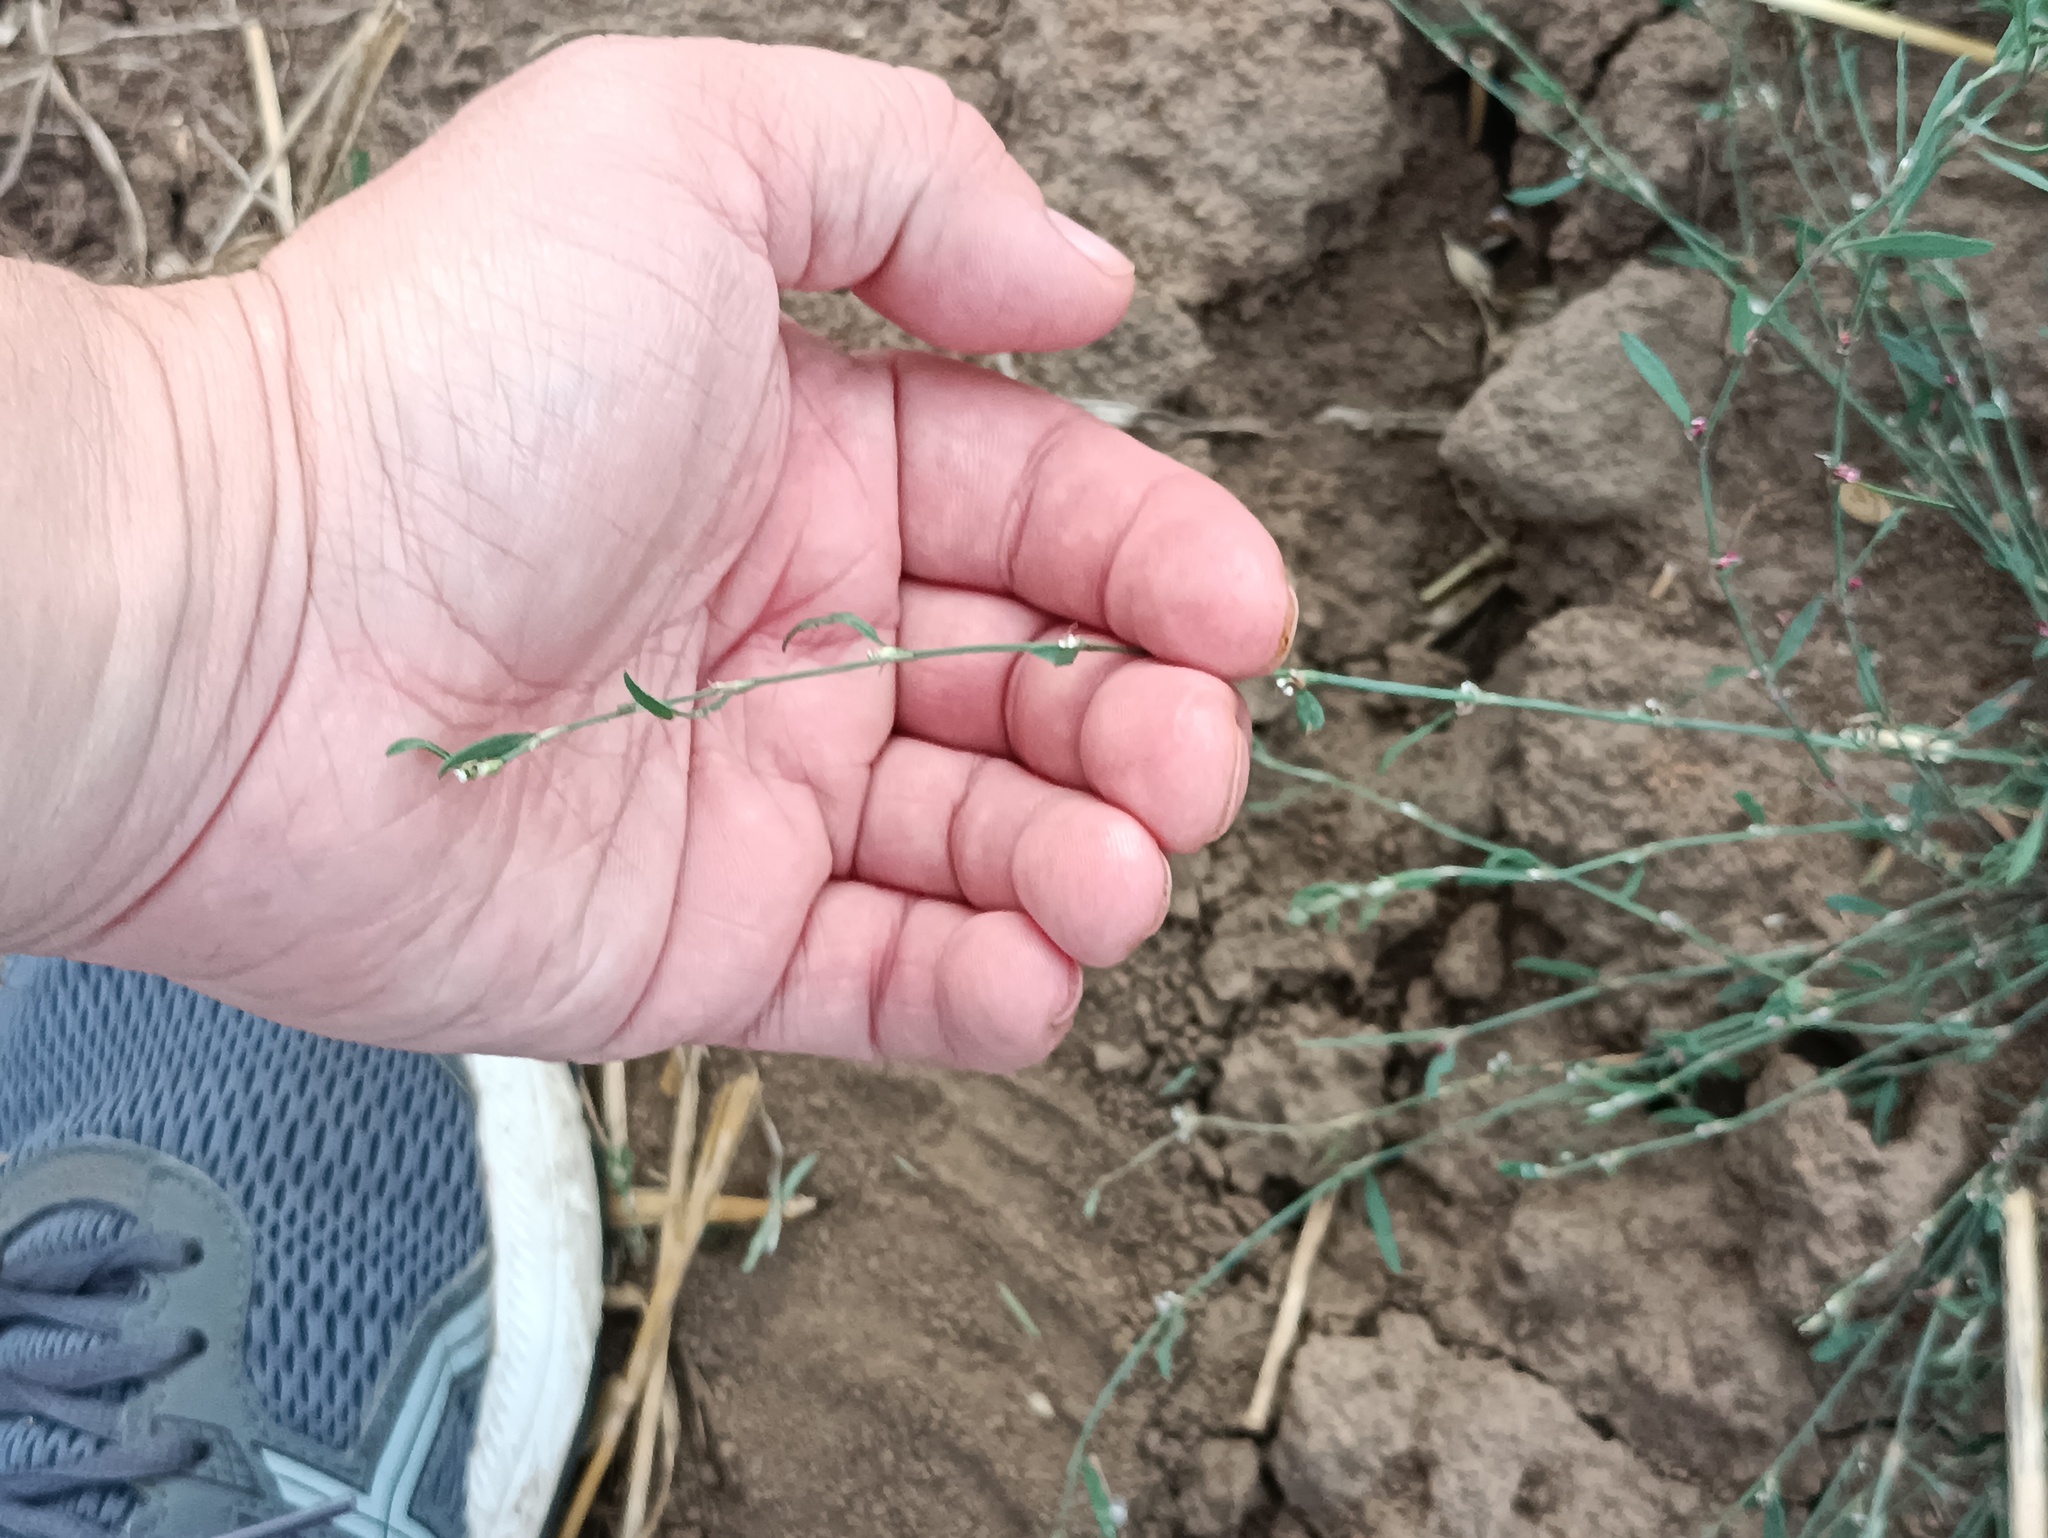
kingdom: Plantae
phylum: Tracheophyta
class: Magnoliopsida
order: Caryophyllales
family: Polygonaceae
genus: Polygonum
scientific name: Polygonum
